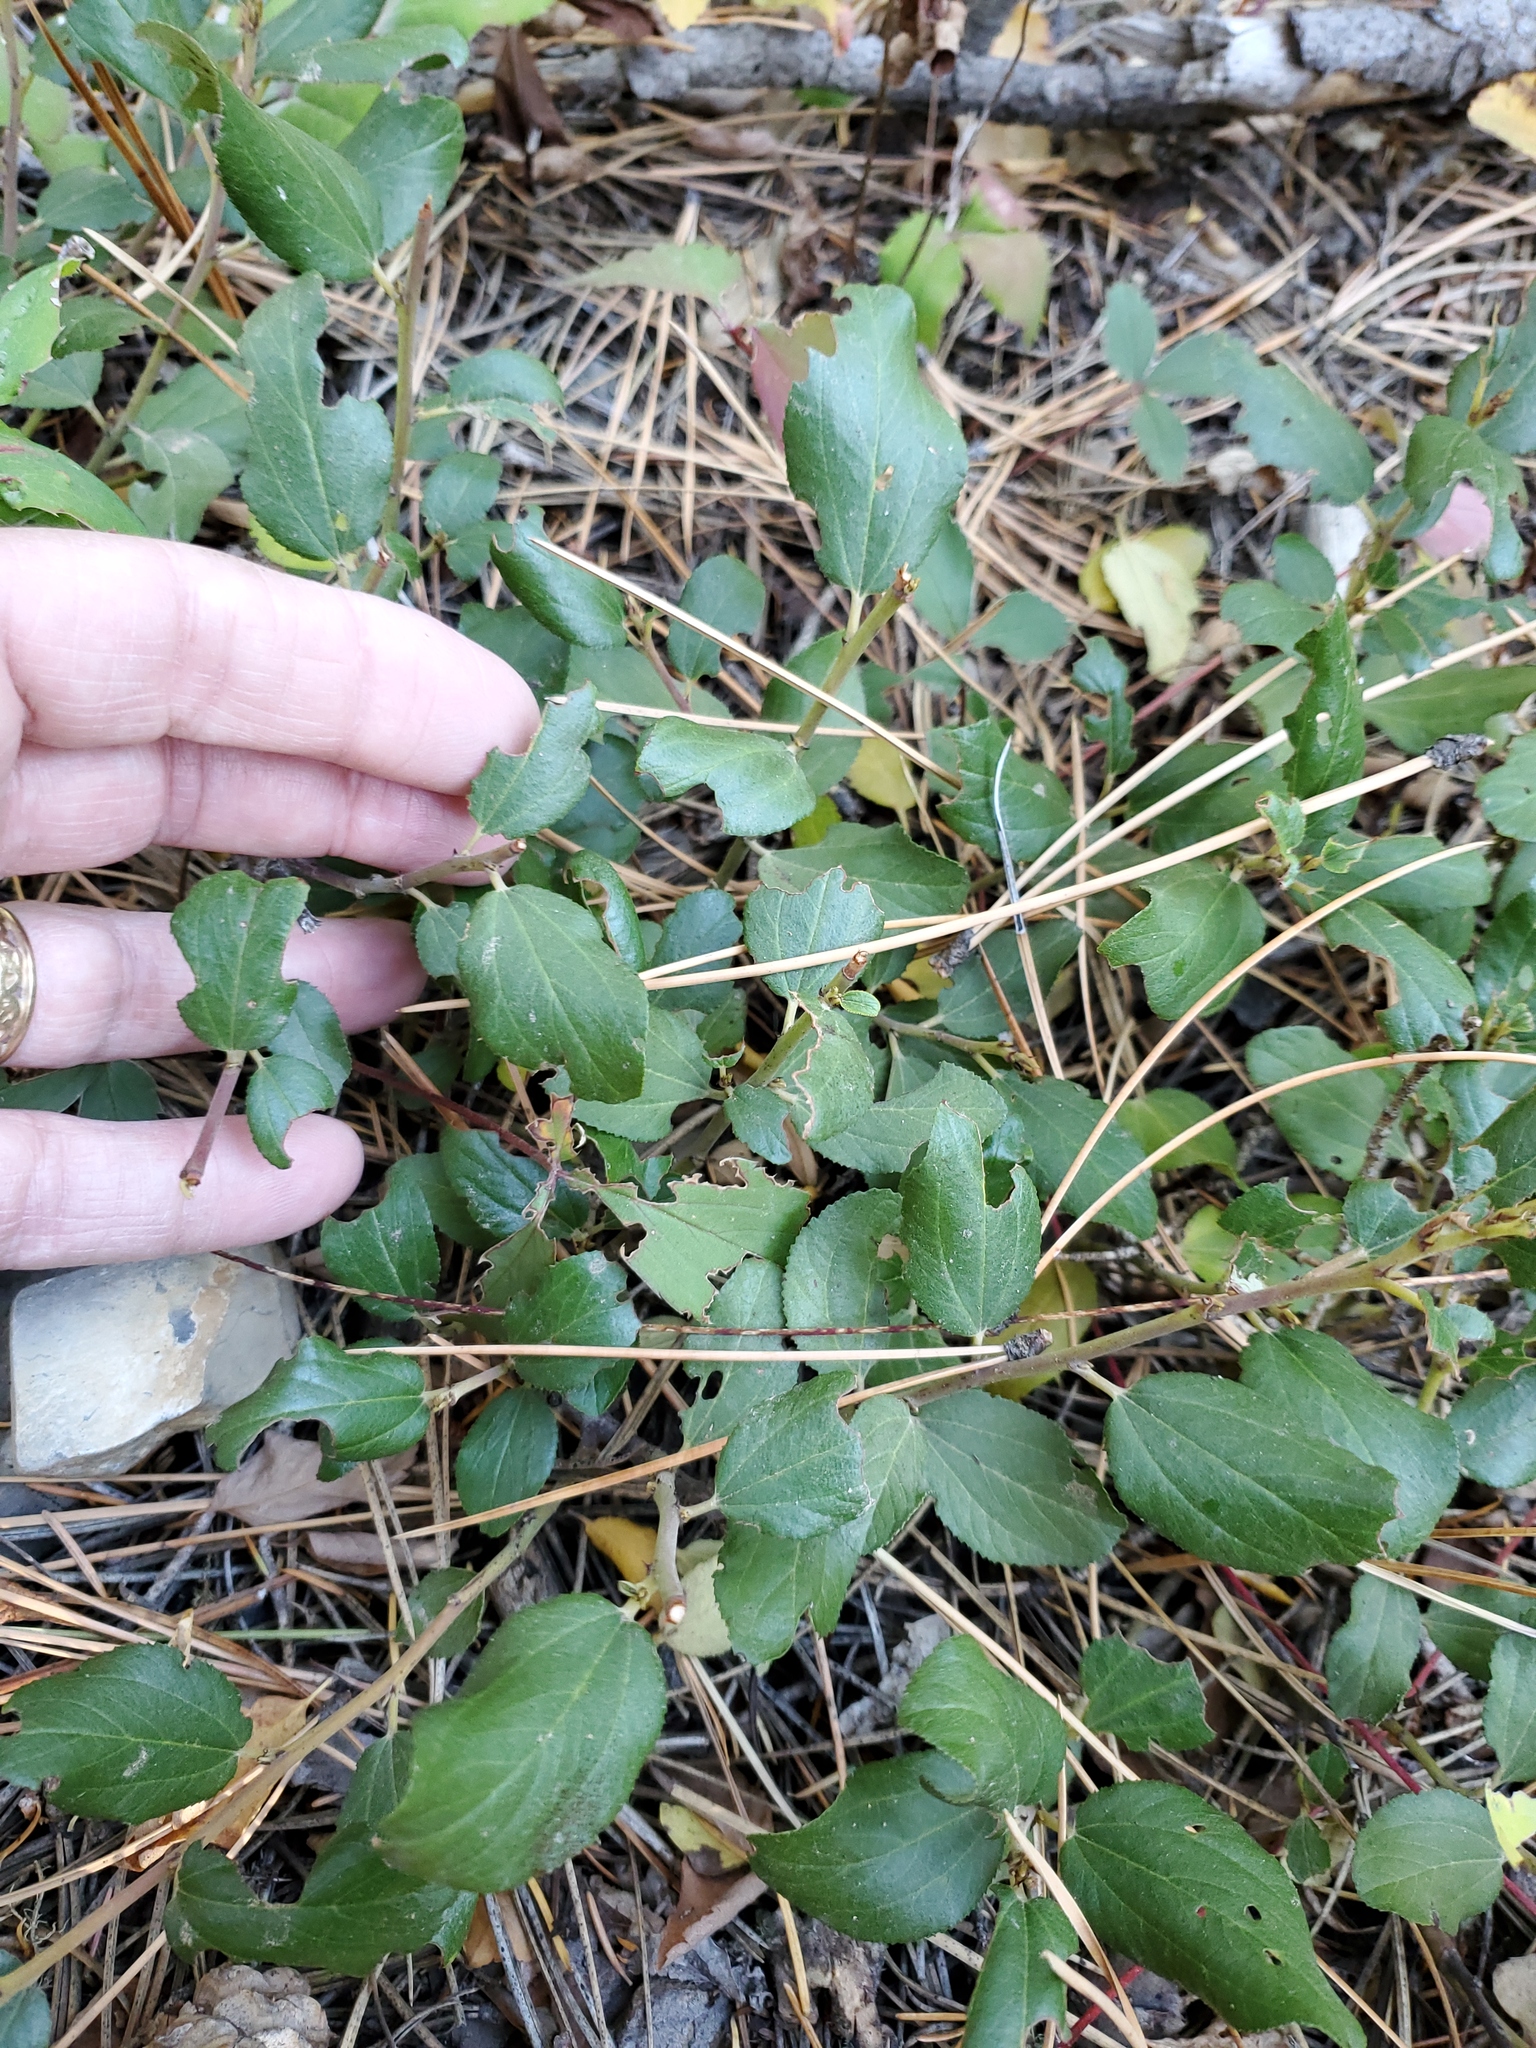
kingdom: Plantae
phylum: Tracheophyta
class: Magnoliopsida
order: Rosales
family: Rhamnaceae
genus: Ceanothus
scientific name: Ceanothus velutinus
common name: Snowbrush
